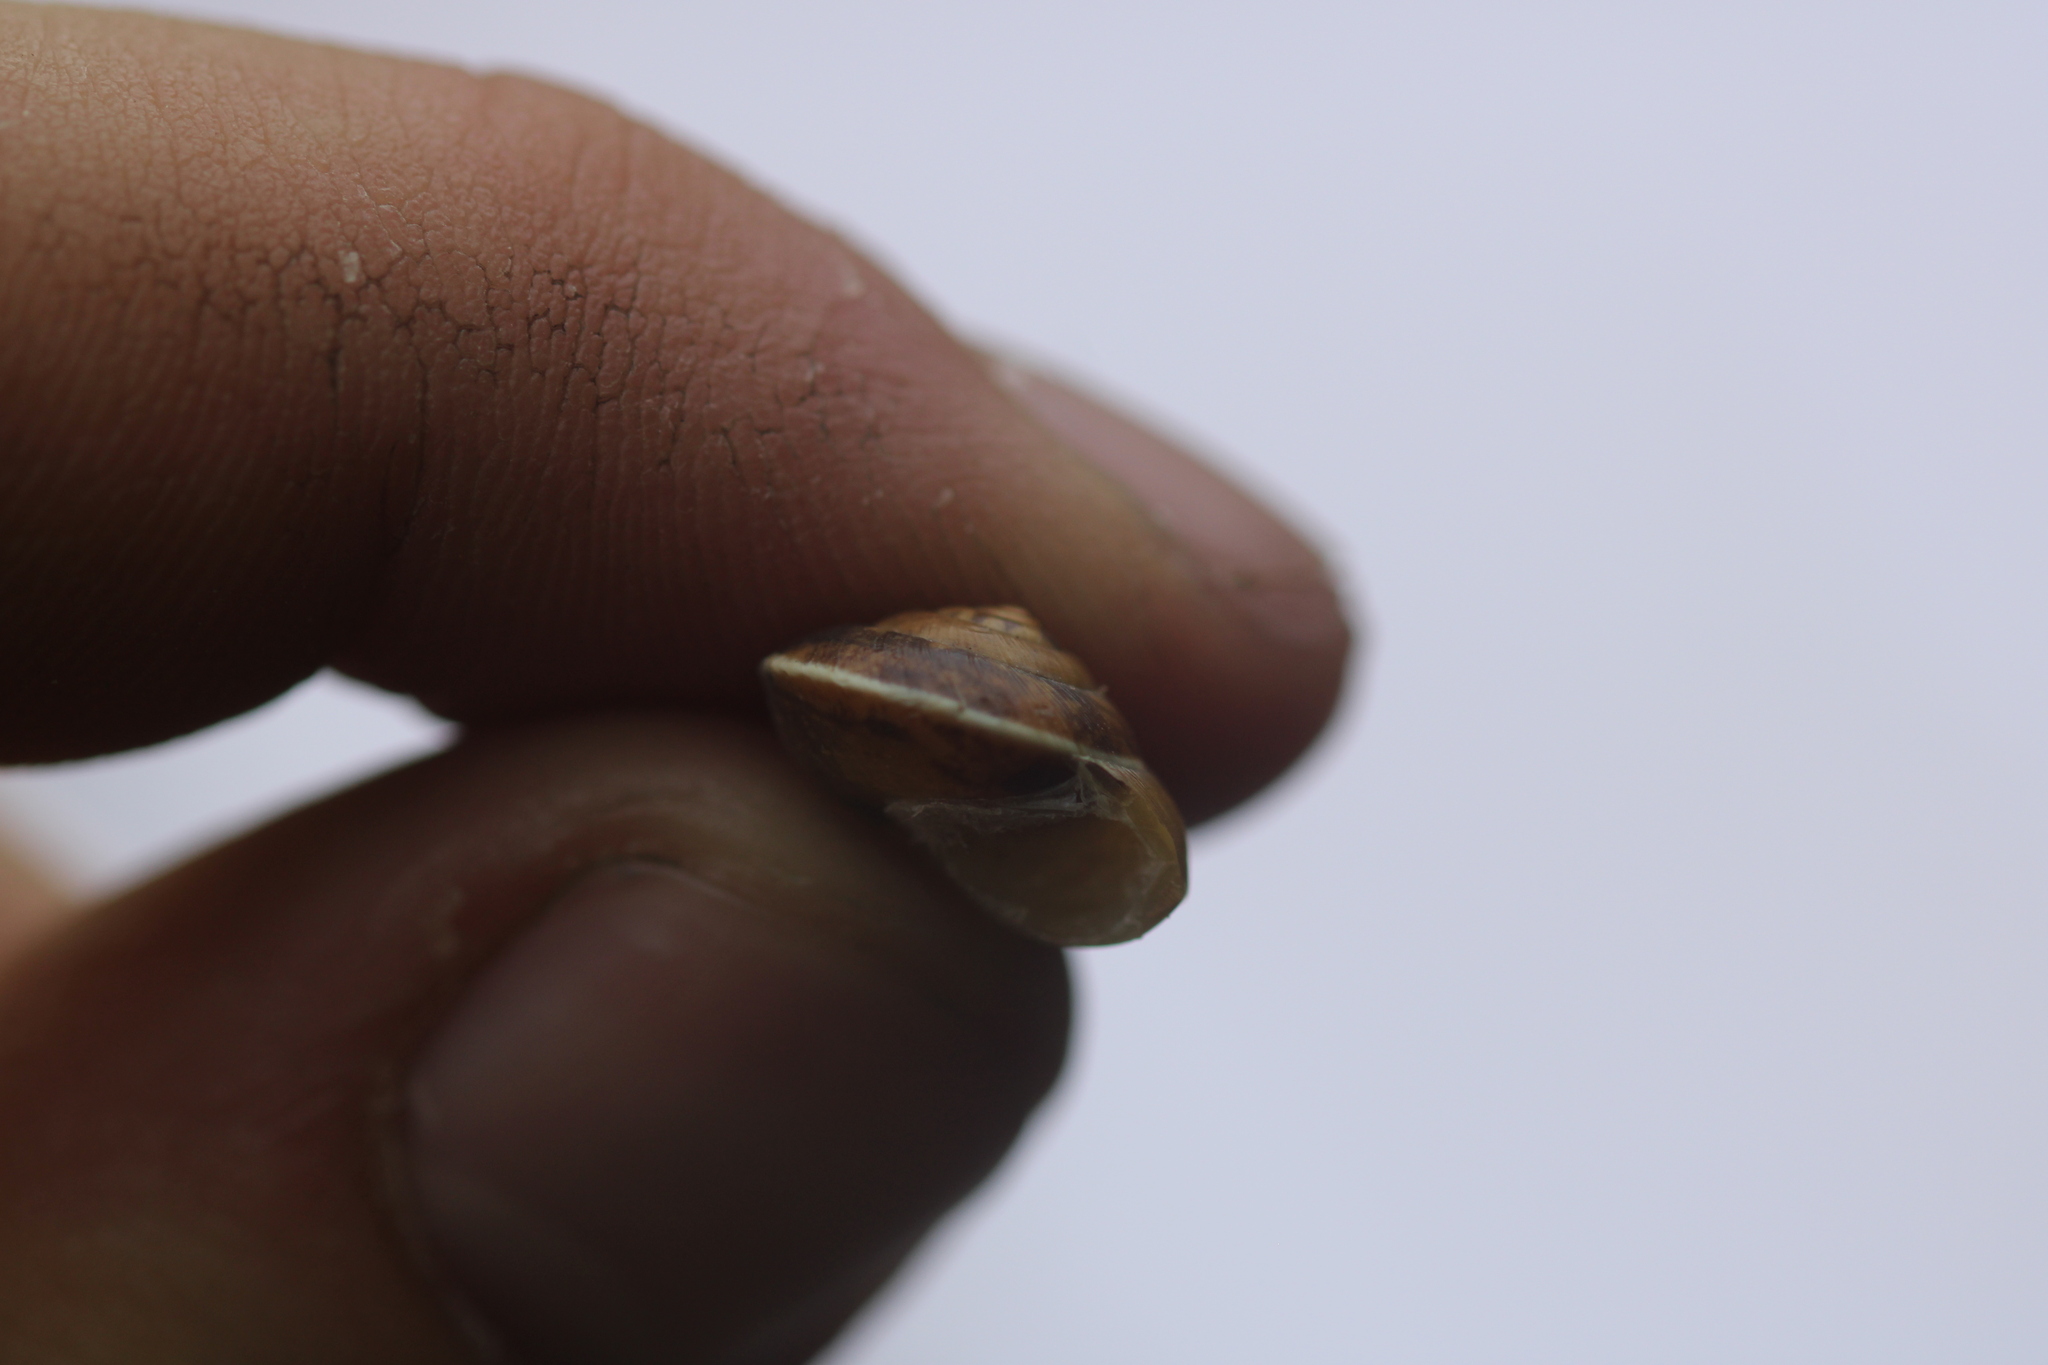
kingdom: Animalia
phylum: Mollusca
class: Gastropoda
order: Stylommatophora
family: Hygromiidae
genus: Hygromia
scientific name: Hygromia cinctella
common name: Girdled snail
